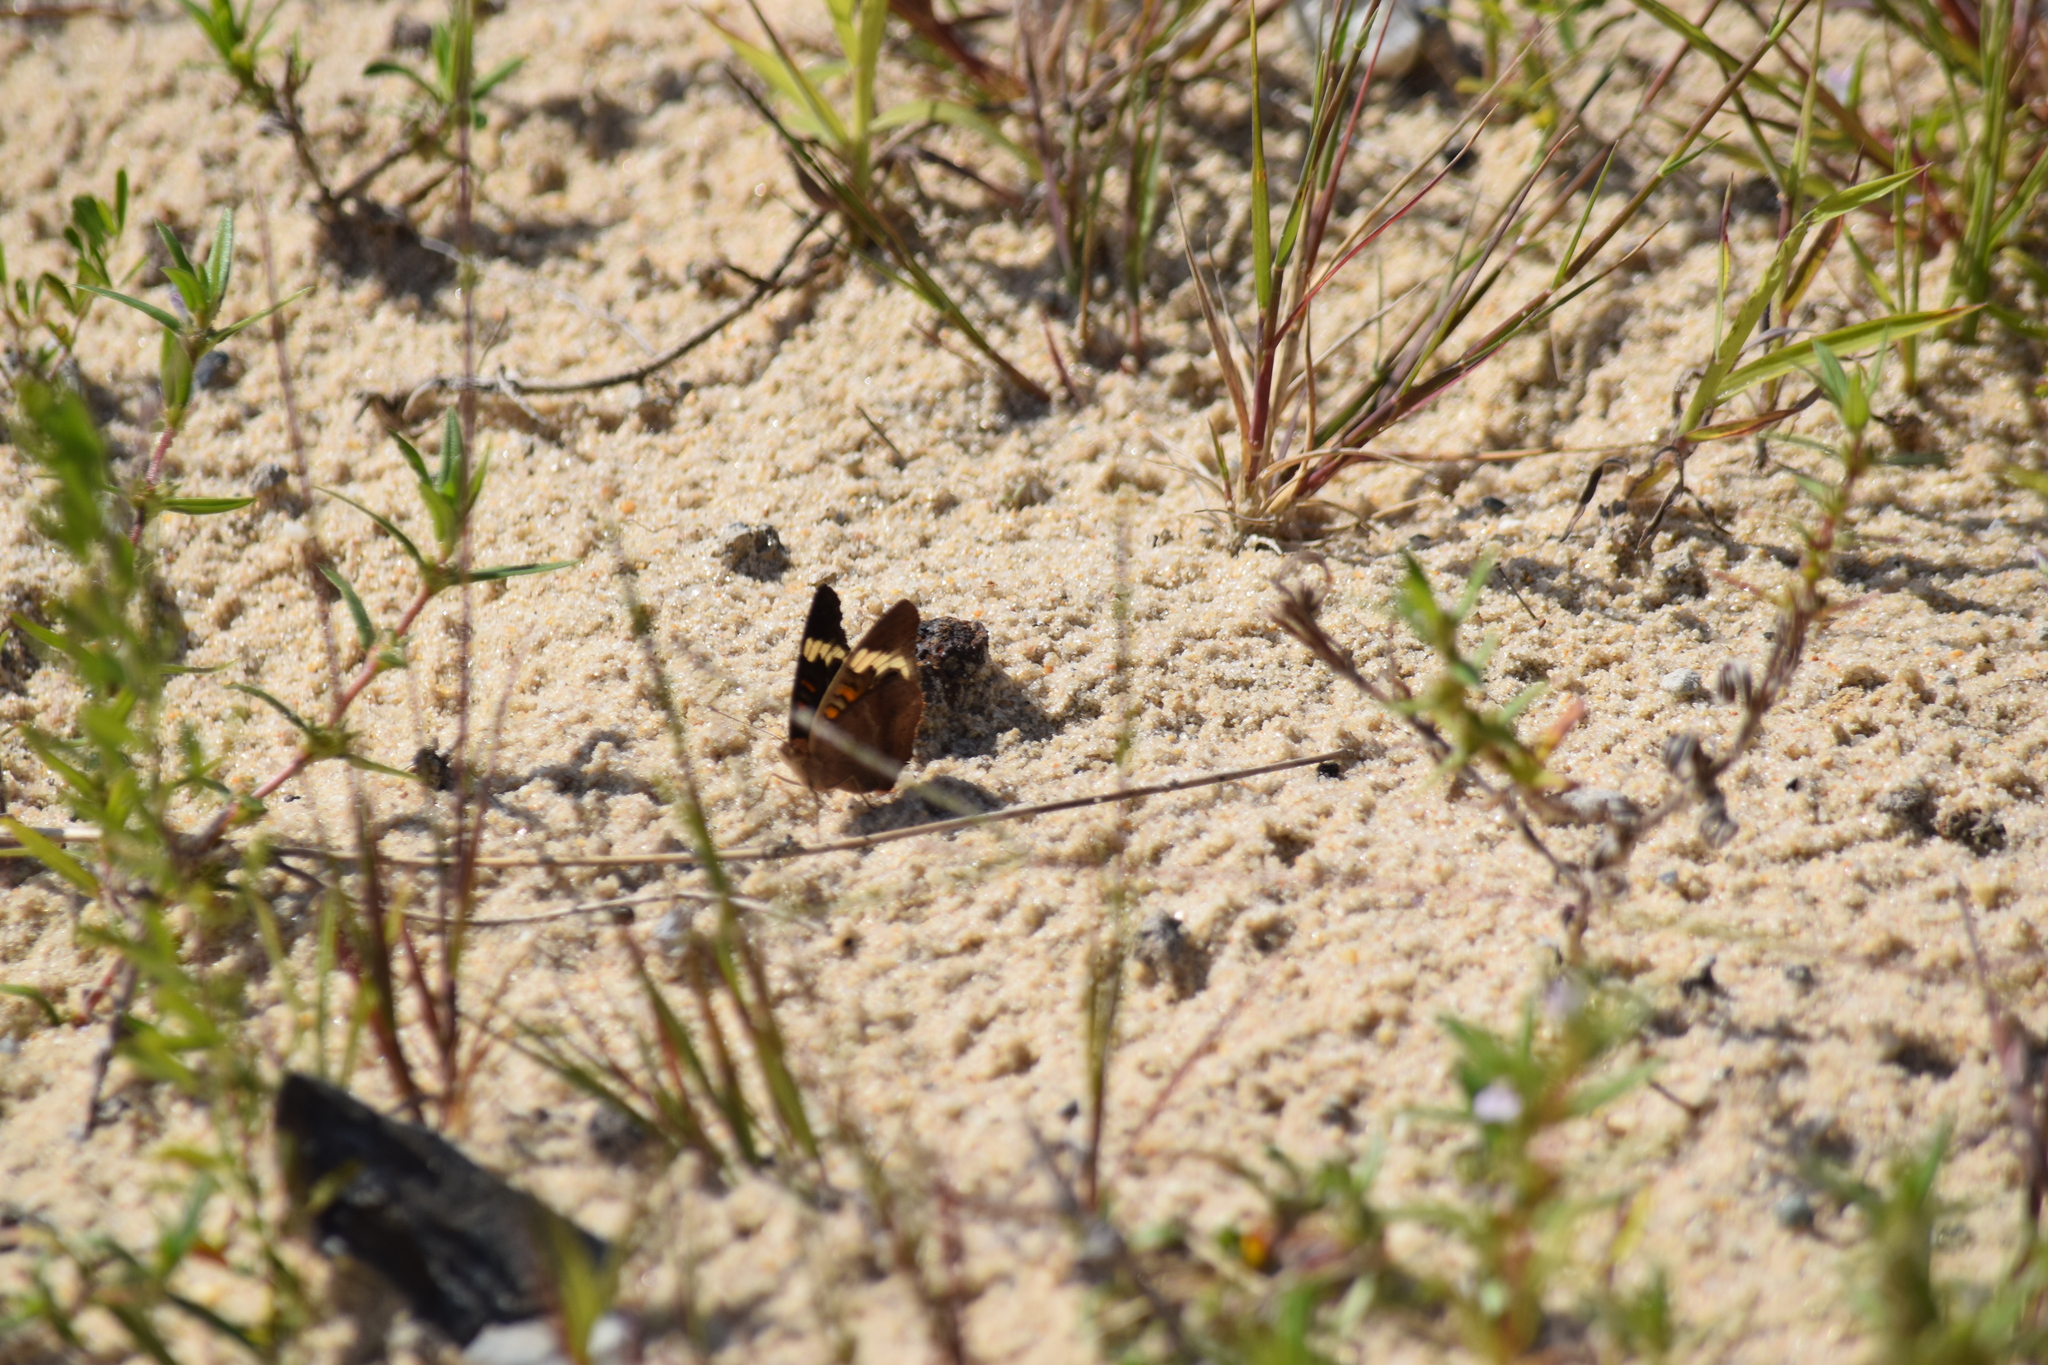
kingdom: Animalia
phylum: Arthropoda
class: Insecta
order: Lepidoptera
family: Nymphalidae
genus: Junonia
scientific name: Junonia coenia
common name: Common buckeye
